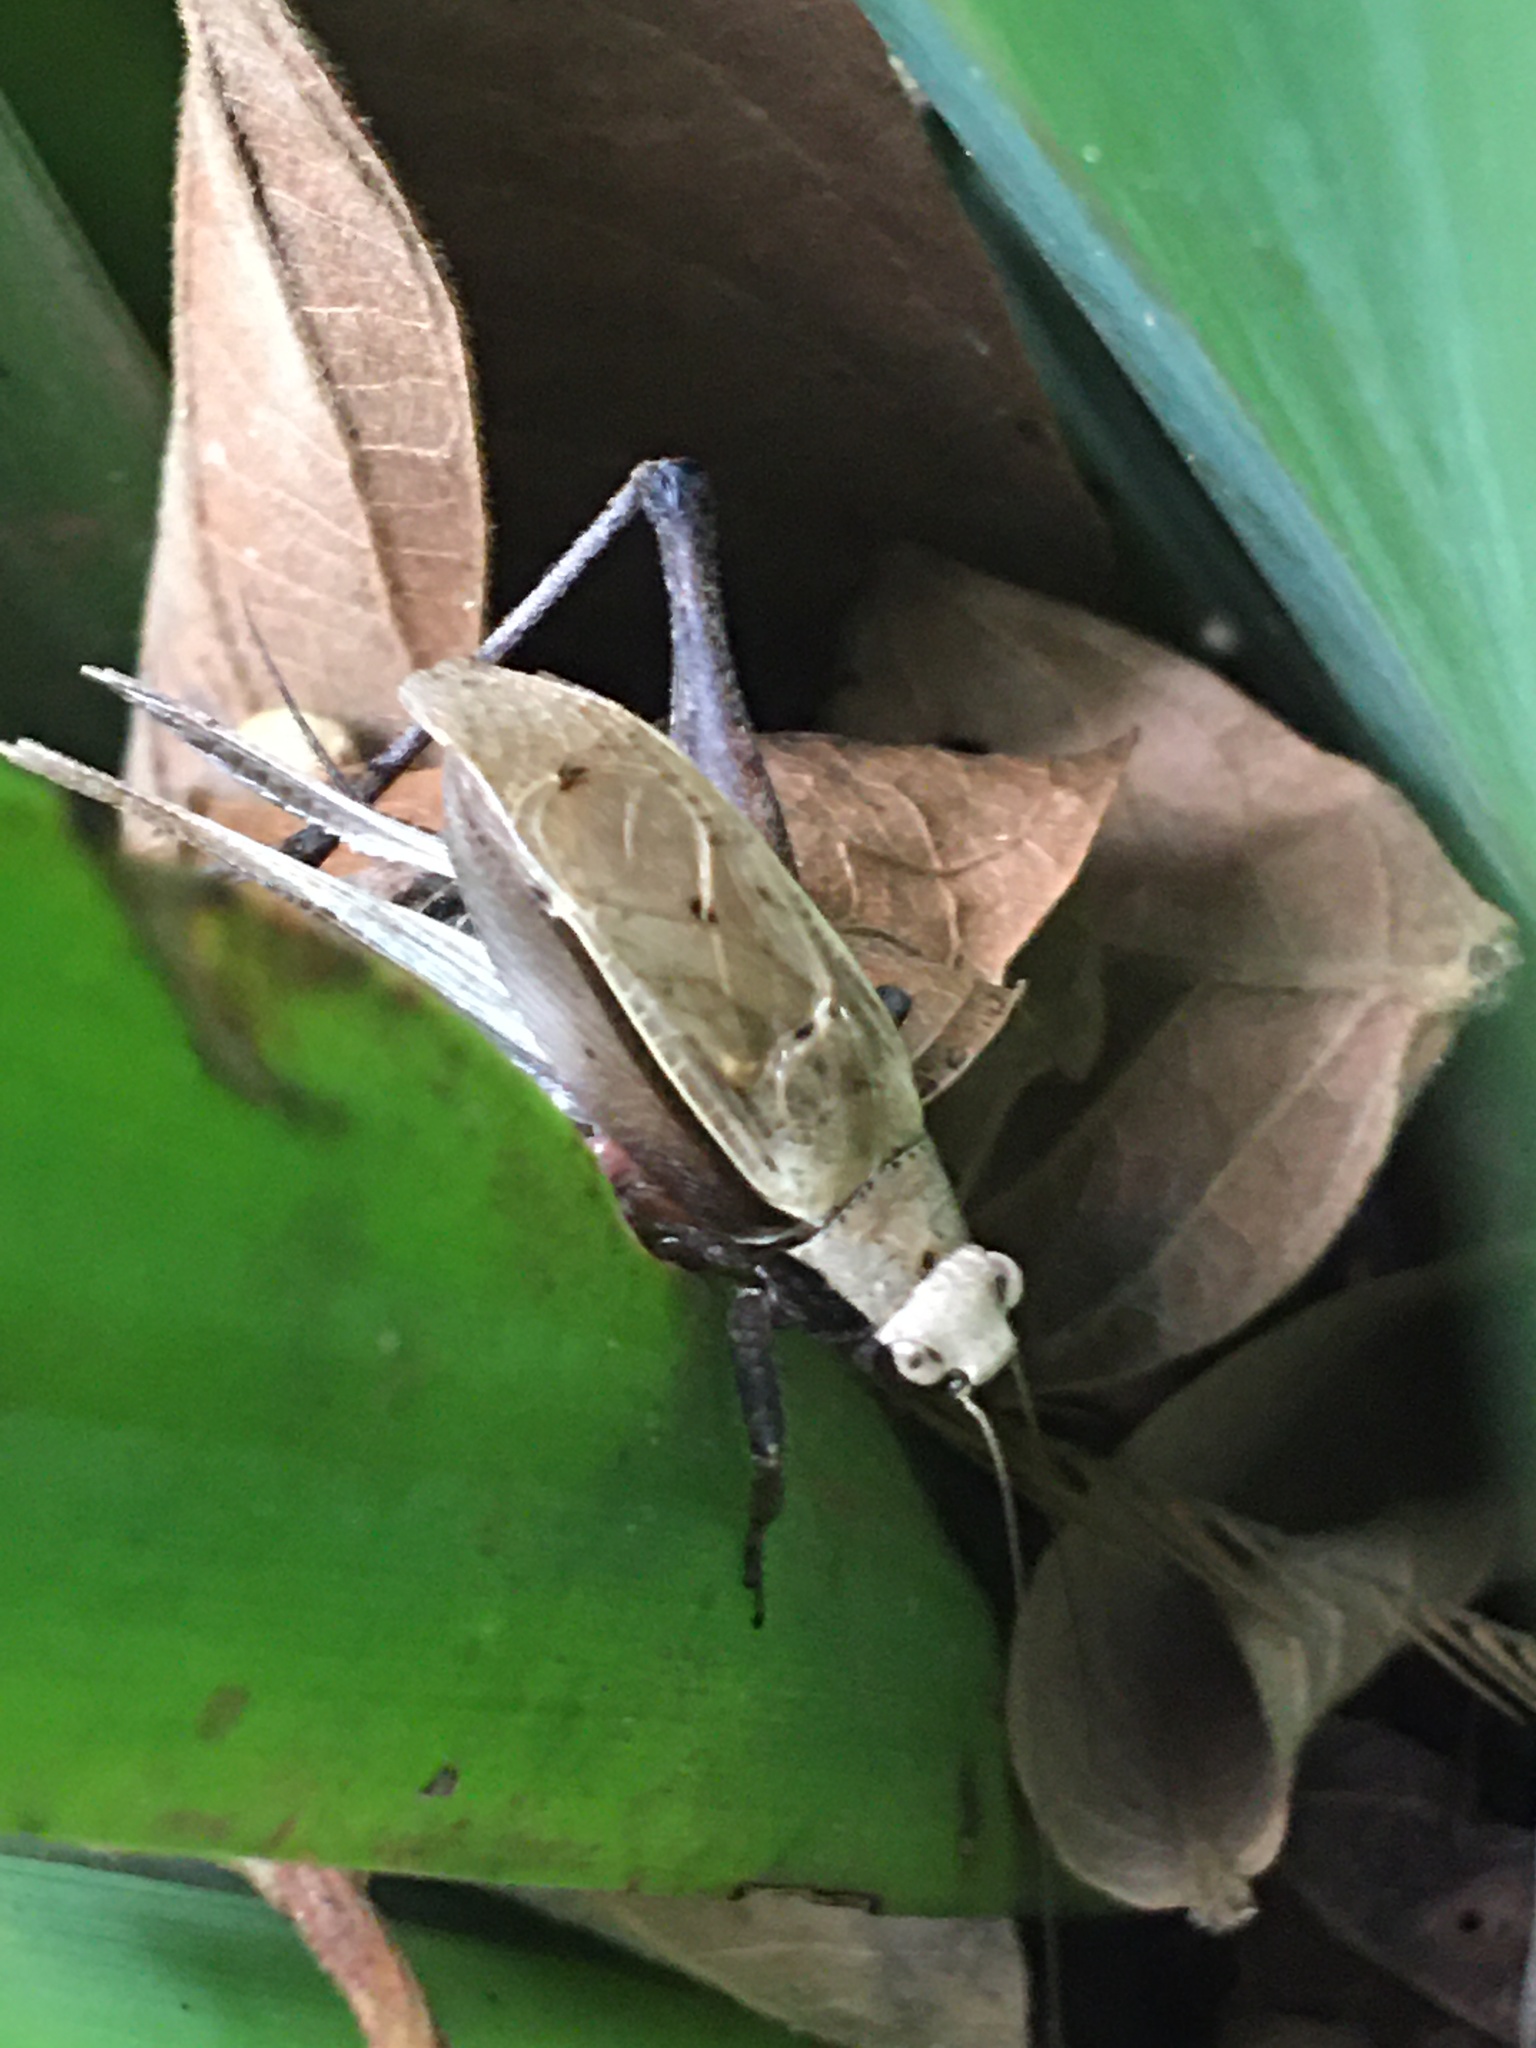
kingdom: Animalia
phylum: Arthropoda
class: Insecta
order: Orthoptera
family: Gryllidae
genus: Eneoptera
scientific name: Eneoptera surinamensis
